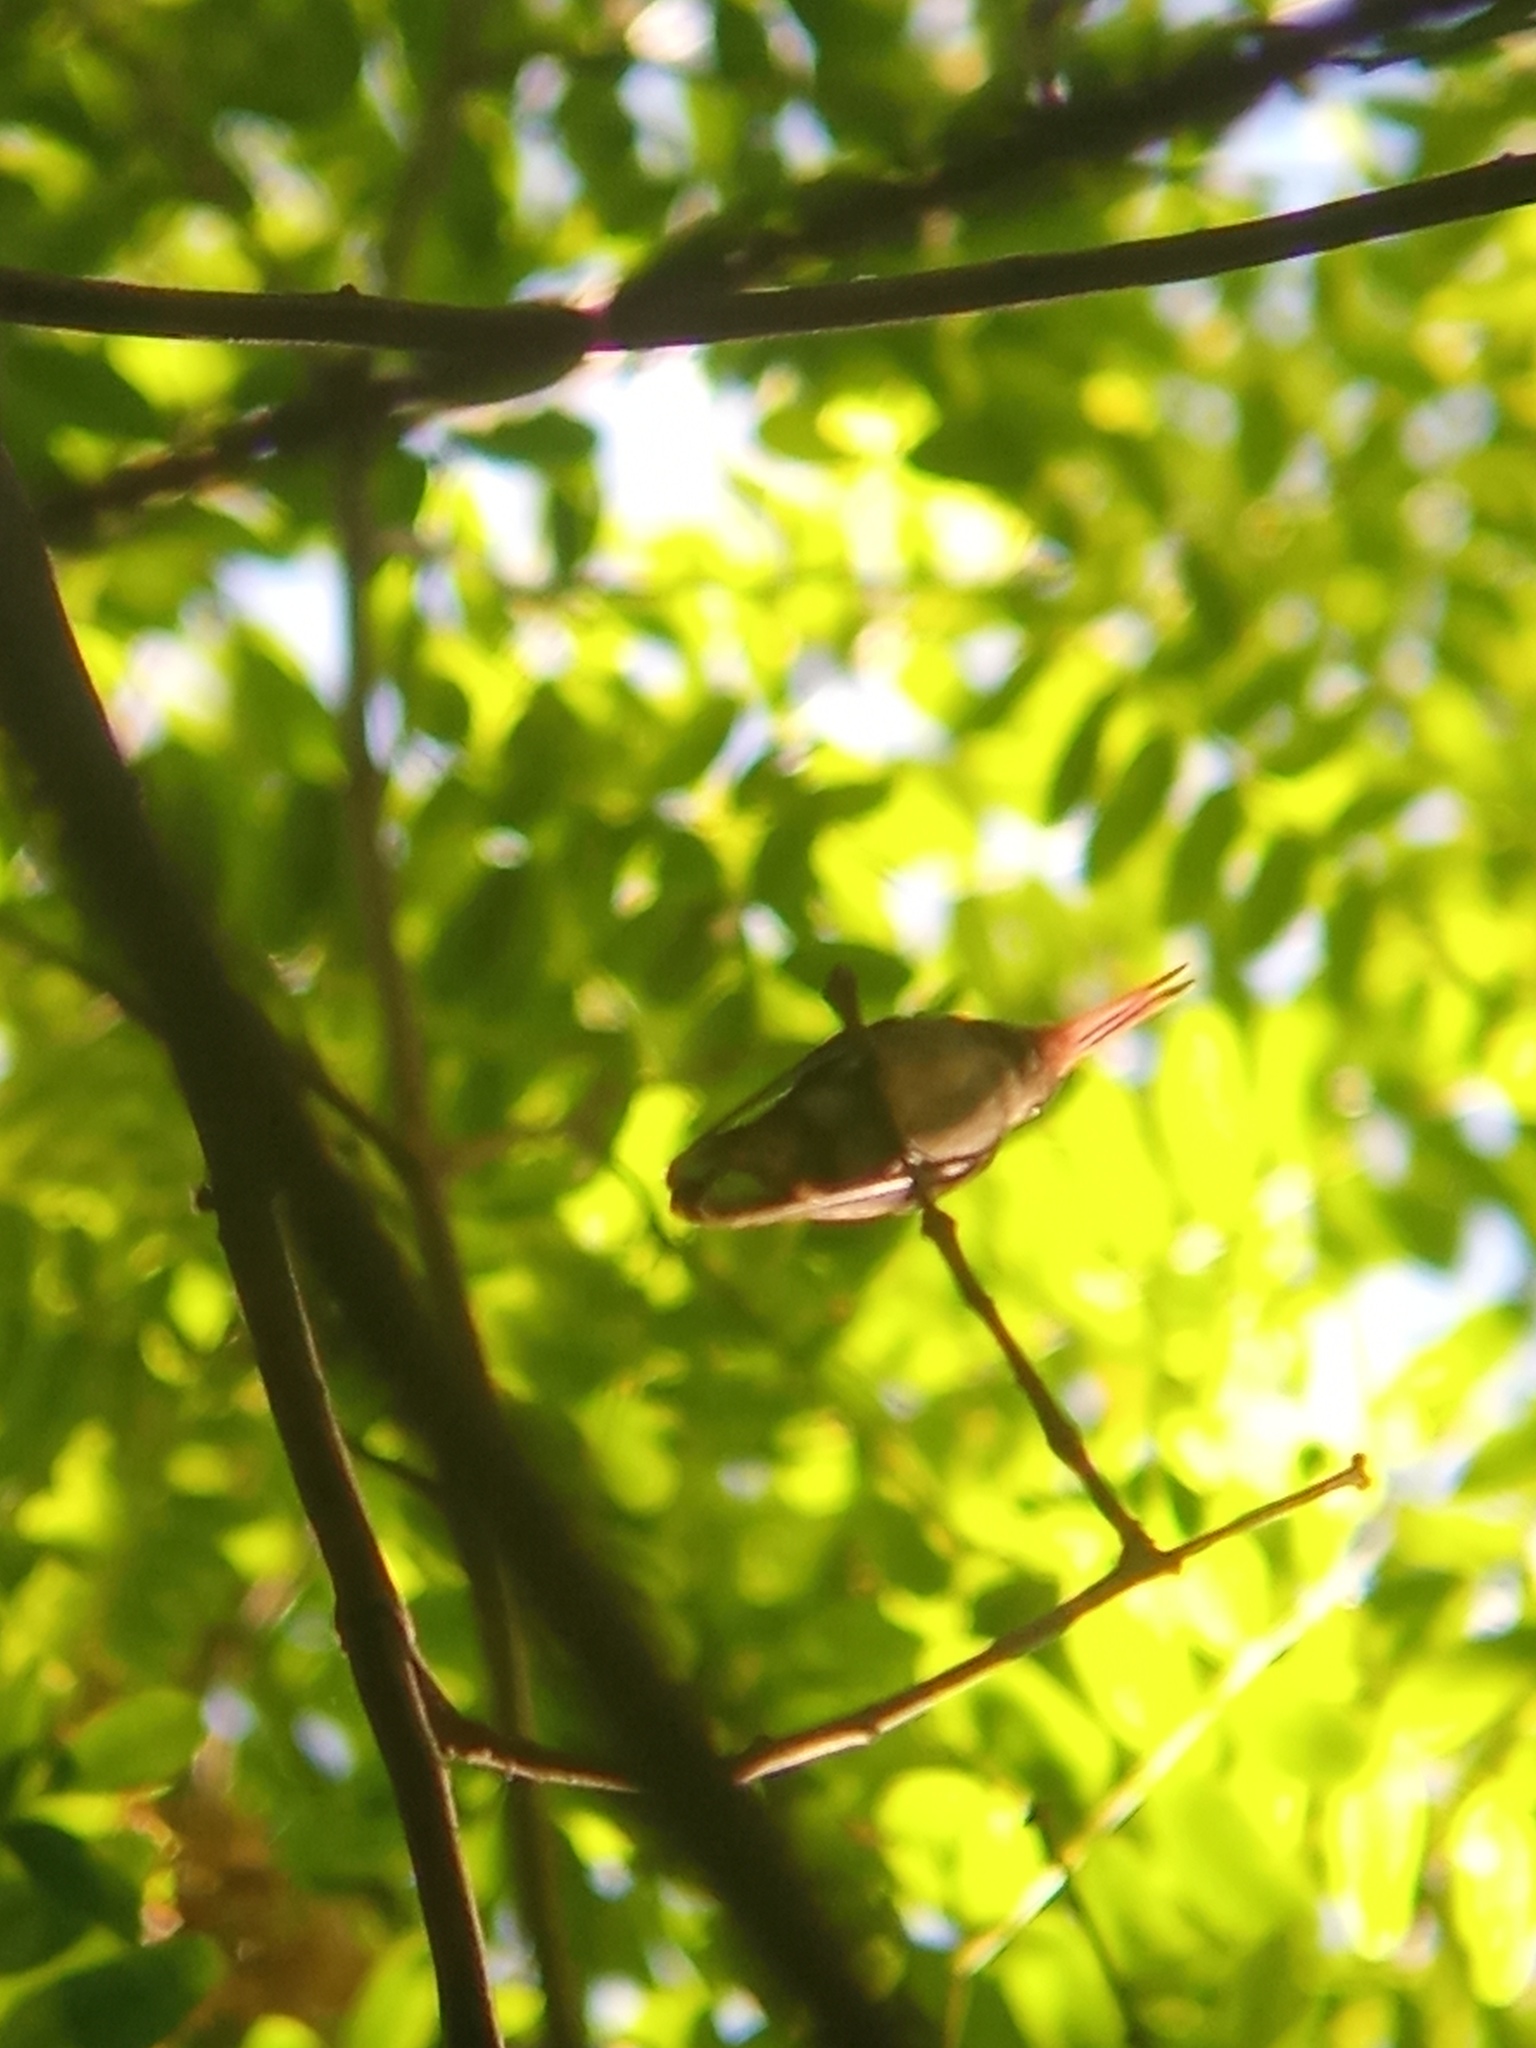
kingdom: Animalia
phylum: Chordata
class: Aves
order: Apodiformes
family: Trochilidae
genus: Hylocharis
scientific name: Hylocharis chrysura
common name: Gilded sapphire
